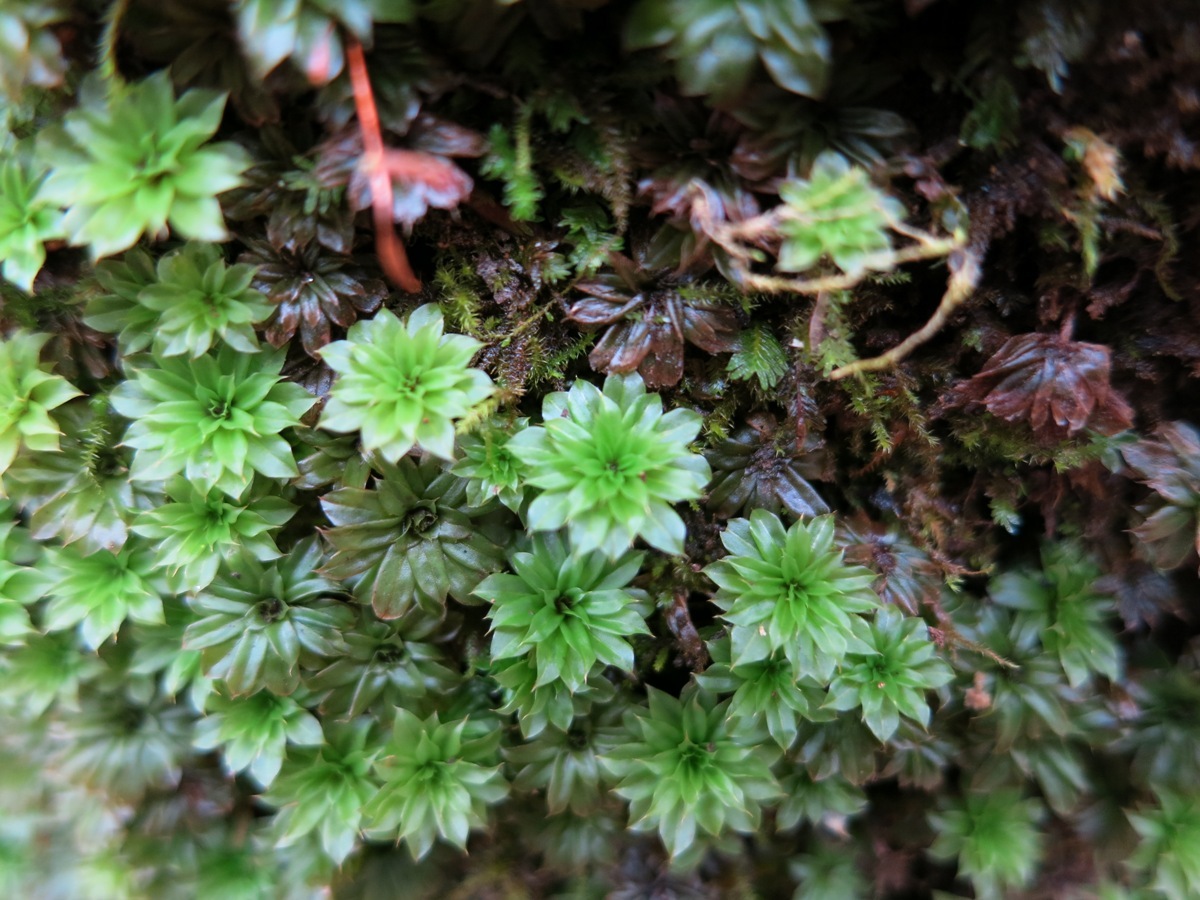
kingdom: Plantae
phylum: Bryophyta
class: Bryopsida
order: Bryales
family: Bryaceae
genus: Rhodobryum
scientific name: Rhodobryum ontariense
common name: Ontario rhodobryum moss
